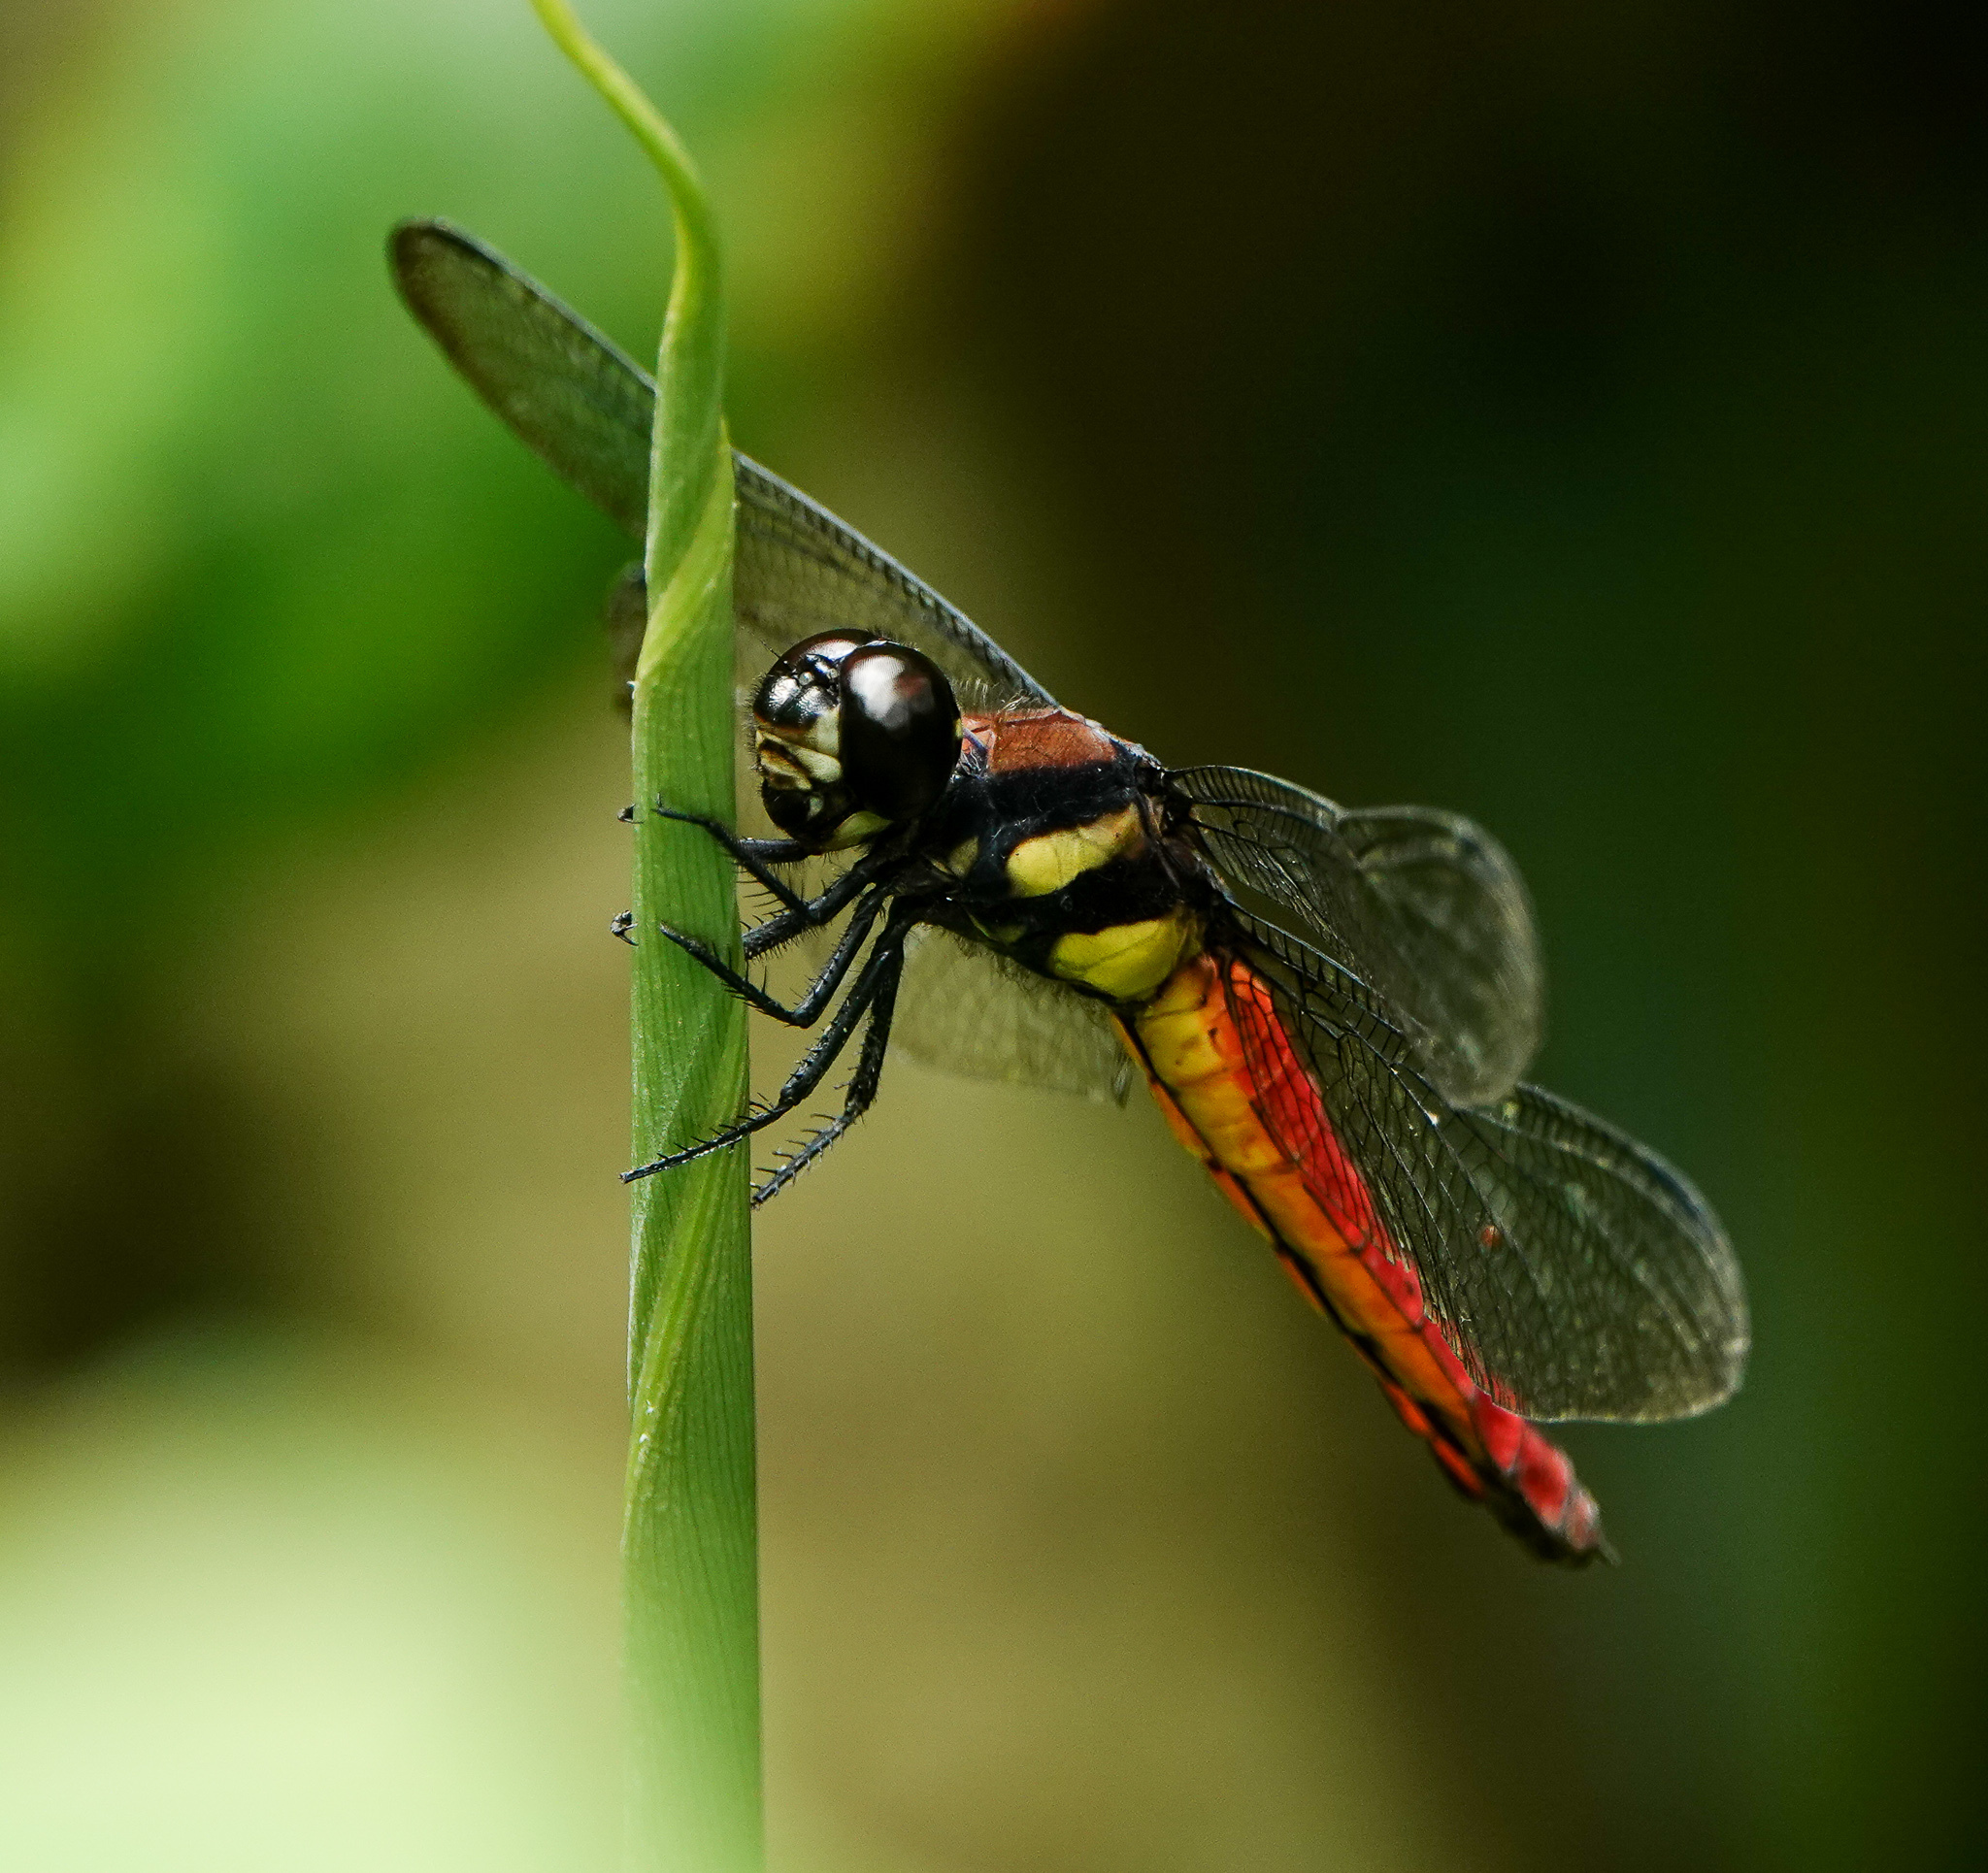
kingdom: Animalia
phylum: Arthropoda
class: Insecta
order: Odonata
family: Libellulidae
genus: Lyriothemis
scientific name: Lyriothemis bivittata
